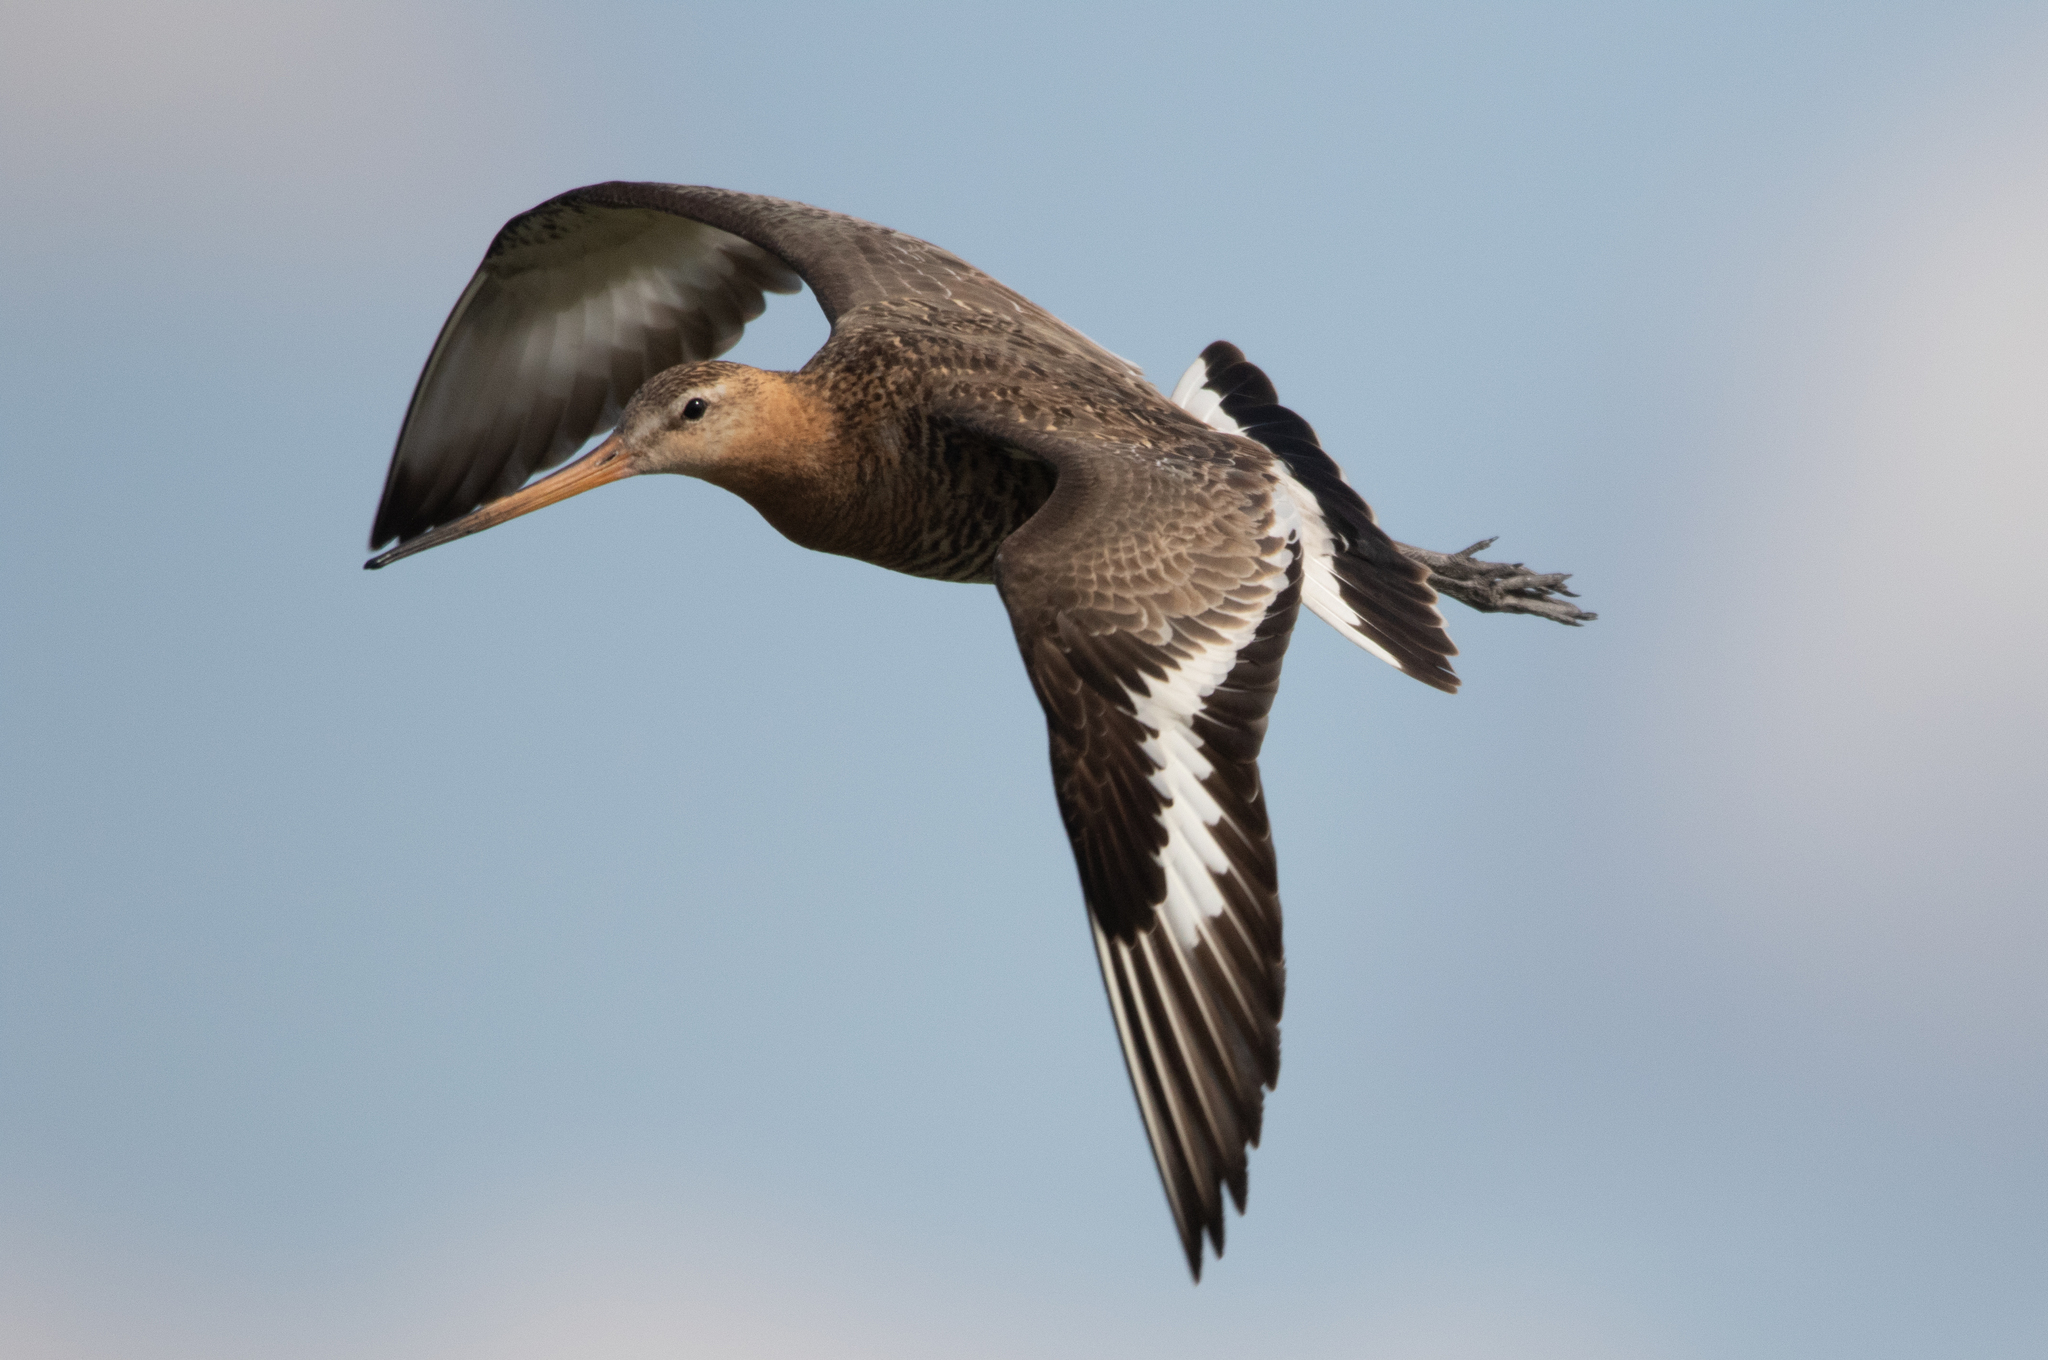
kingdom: Animalia
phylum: Chordata
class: Aves
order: Charadriiformes
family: Scolopacidae
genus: Limosa
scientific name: Limosa limosa
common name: Black-tailed godwit
